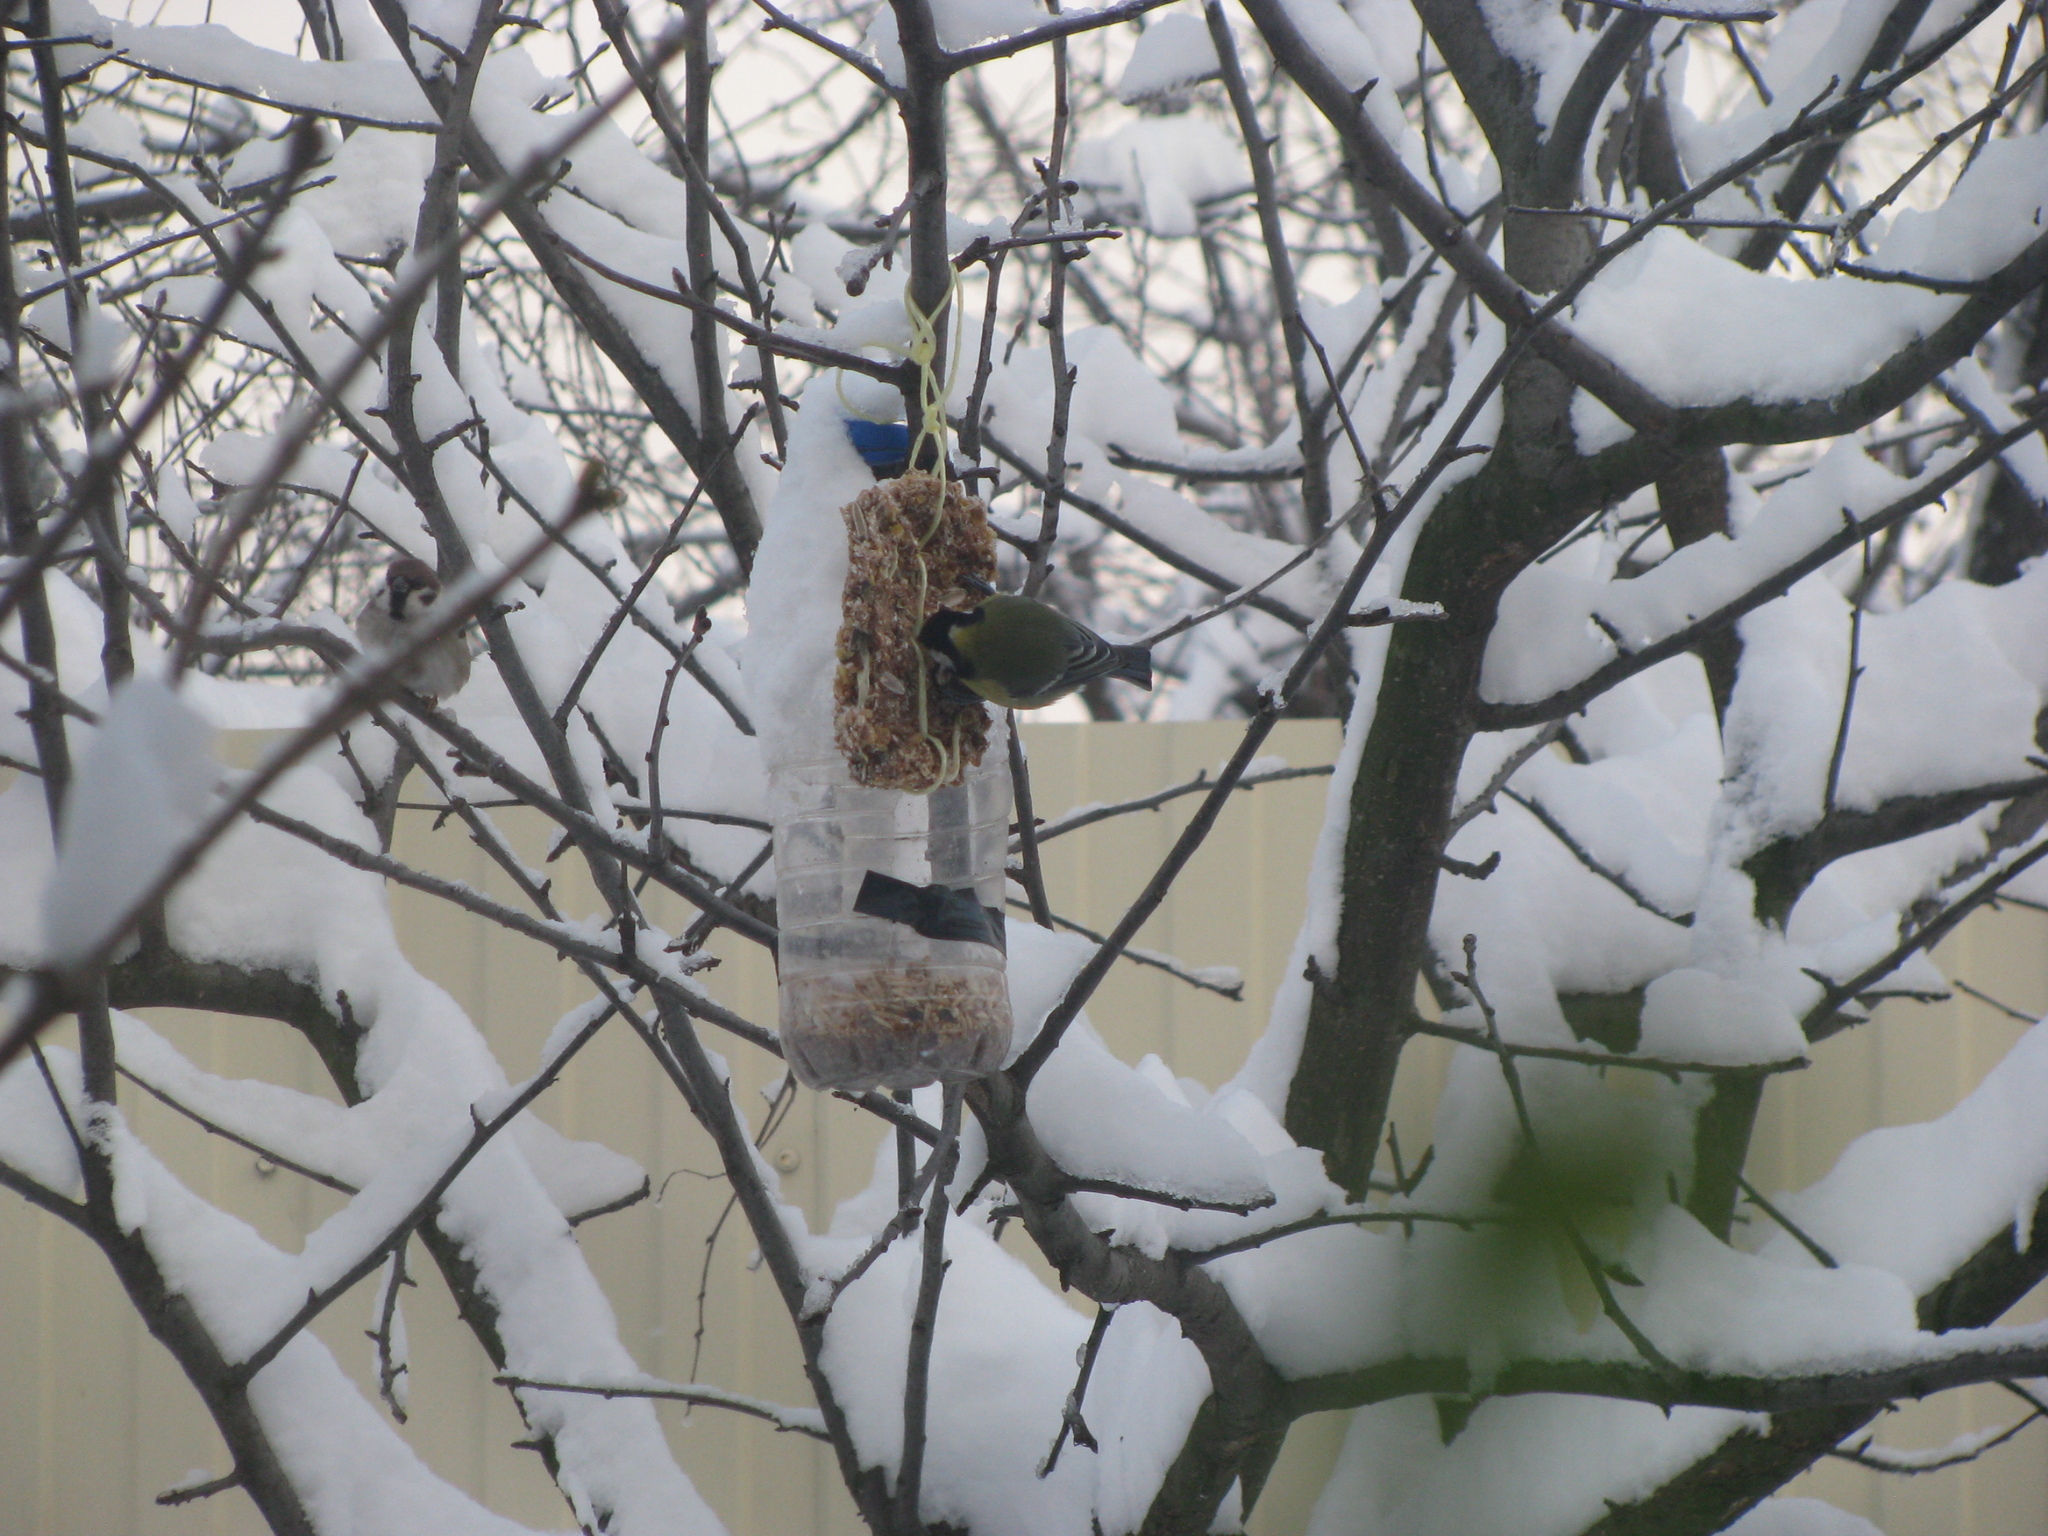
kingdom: Animalia
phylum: Chordata
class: Aves
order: Passeriformes
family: Paridae
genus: Parus
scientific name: Parus major
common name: Great tit
